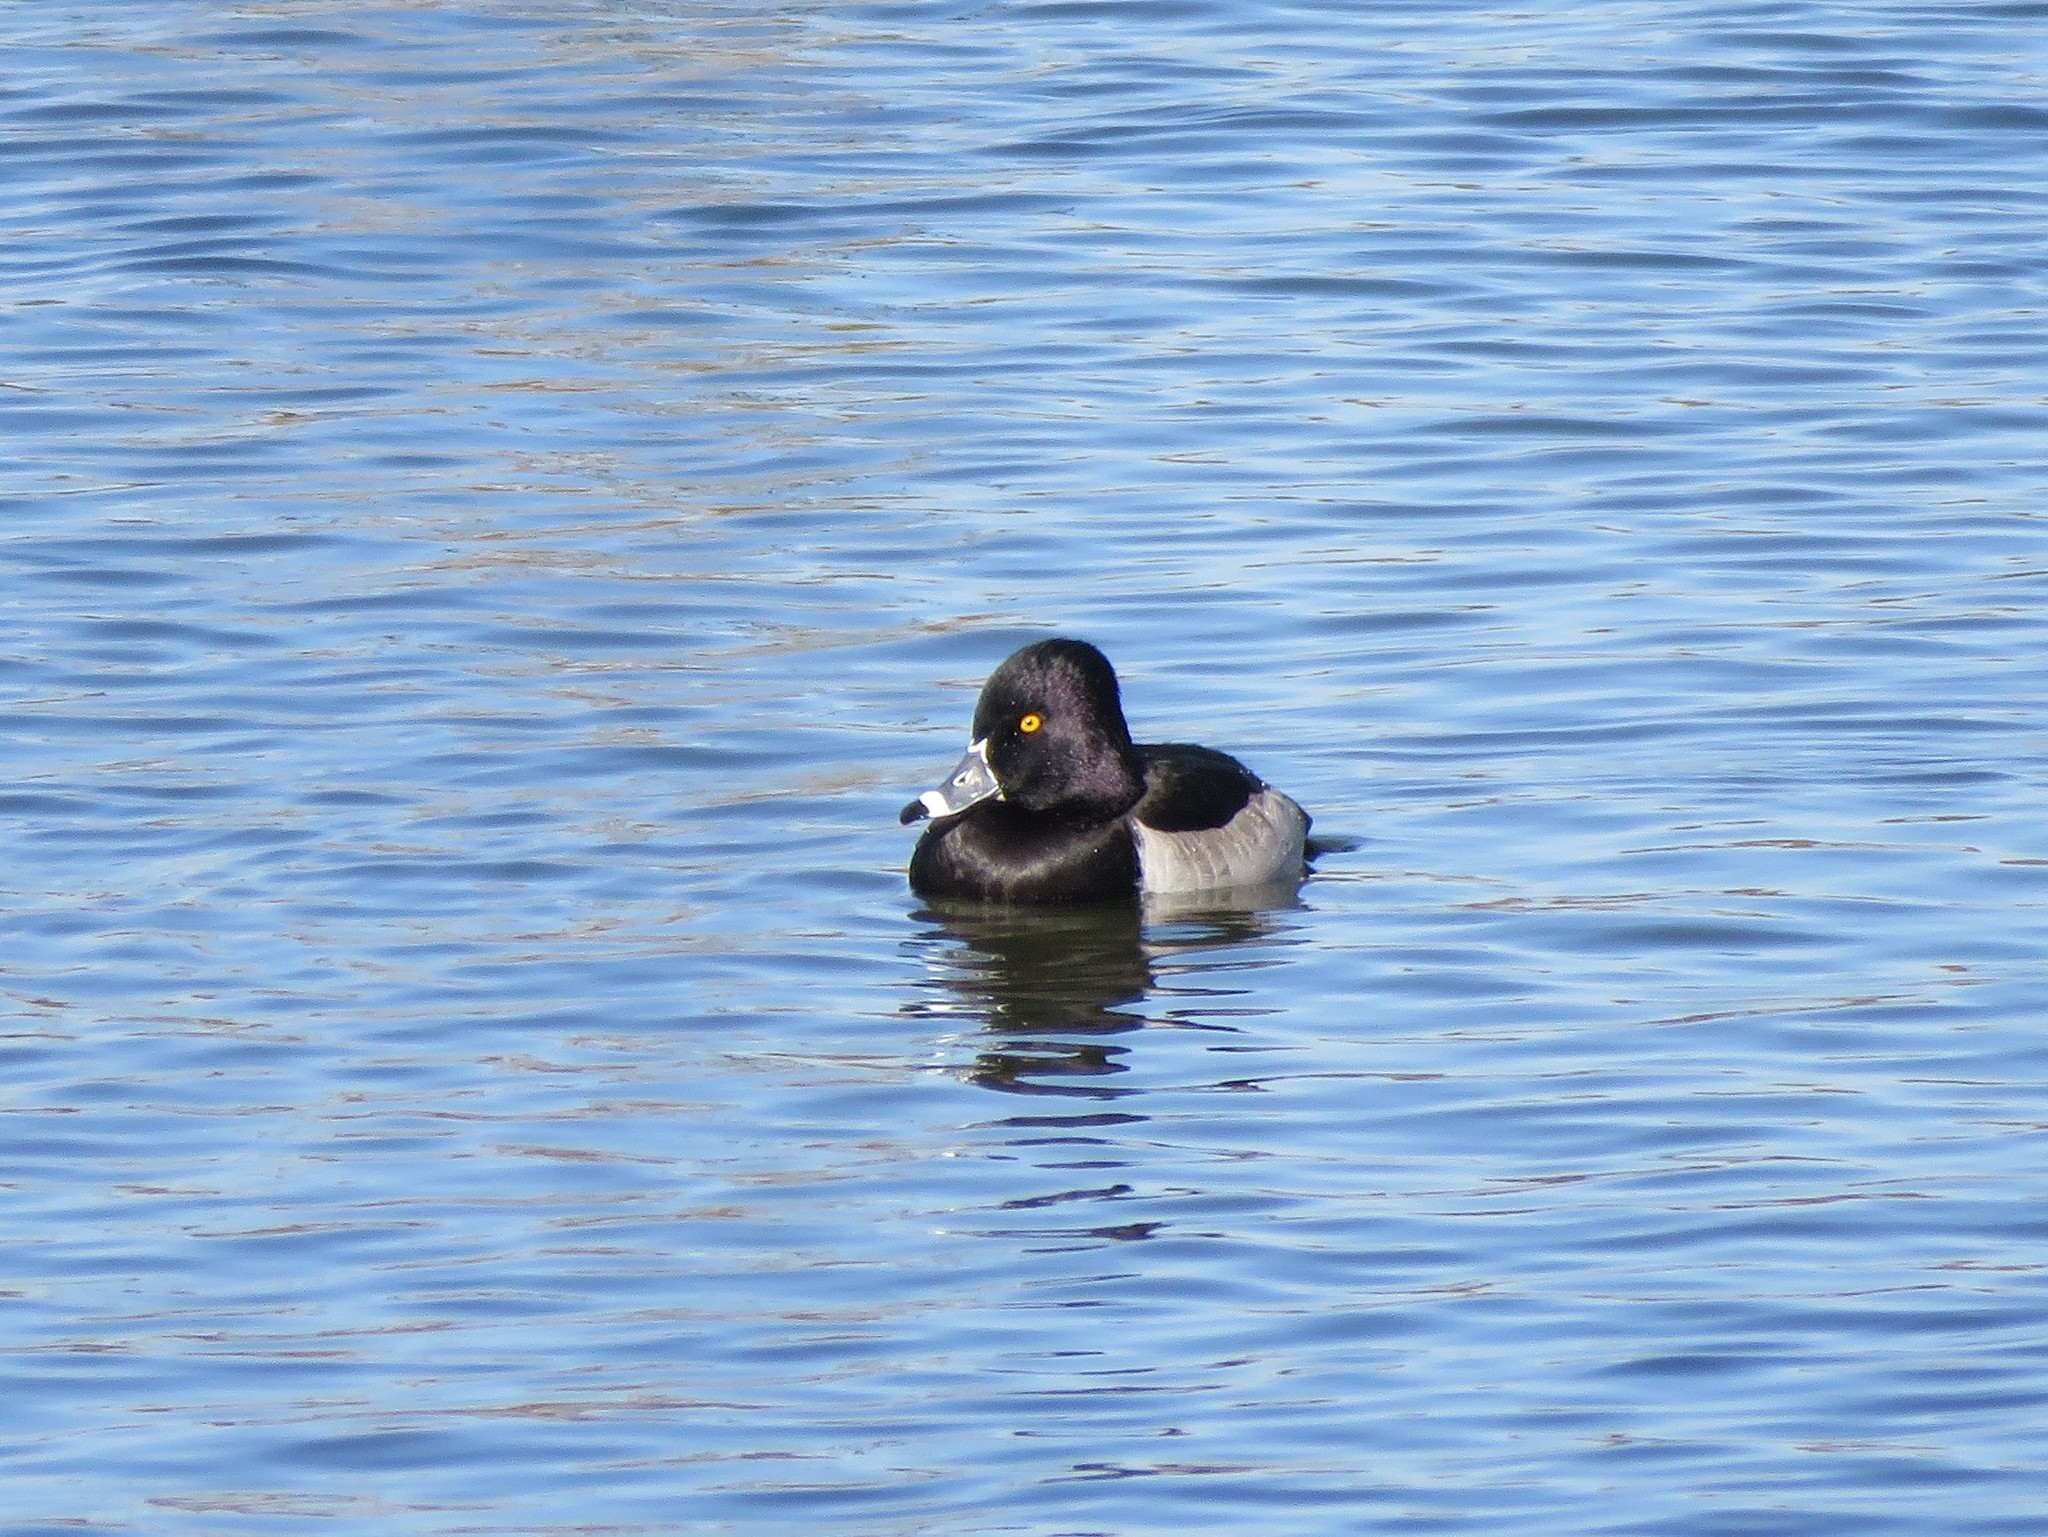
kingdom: Animalia
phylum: Chordata
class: Aves
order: Anseriformes
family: Anatidae
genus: Aythya
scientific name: Aythya collaris
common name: Ring-necked duck
